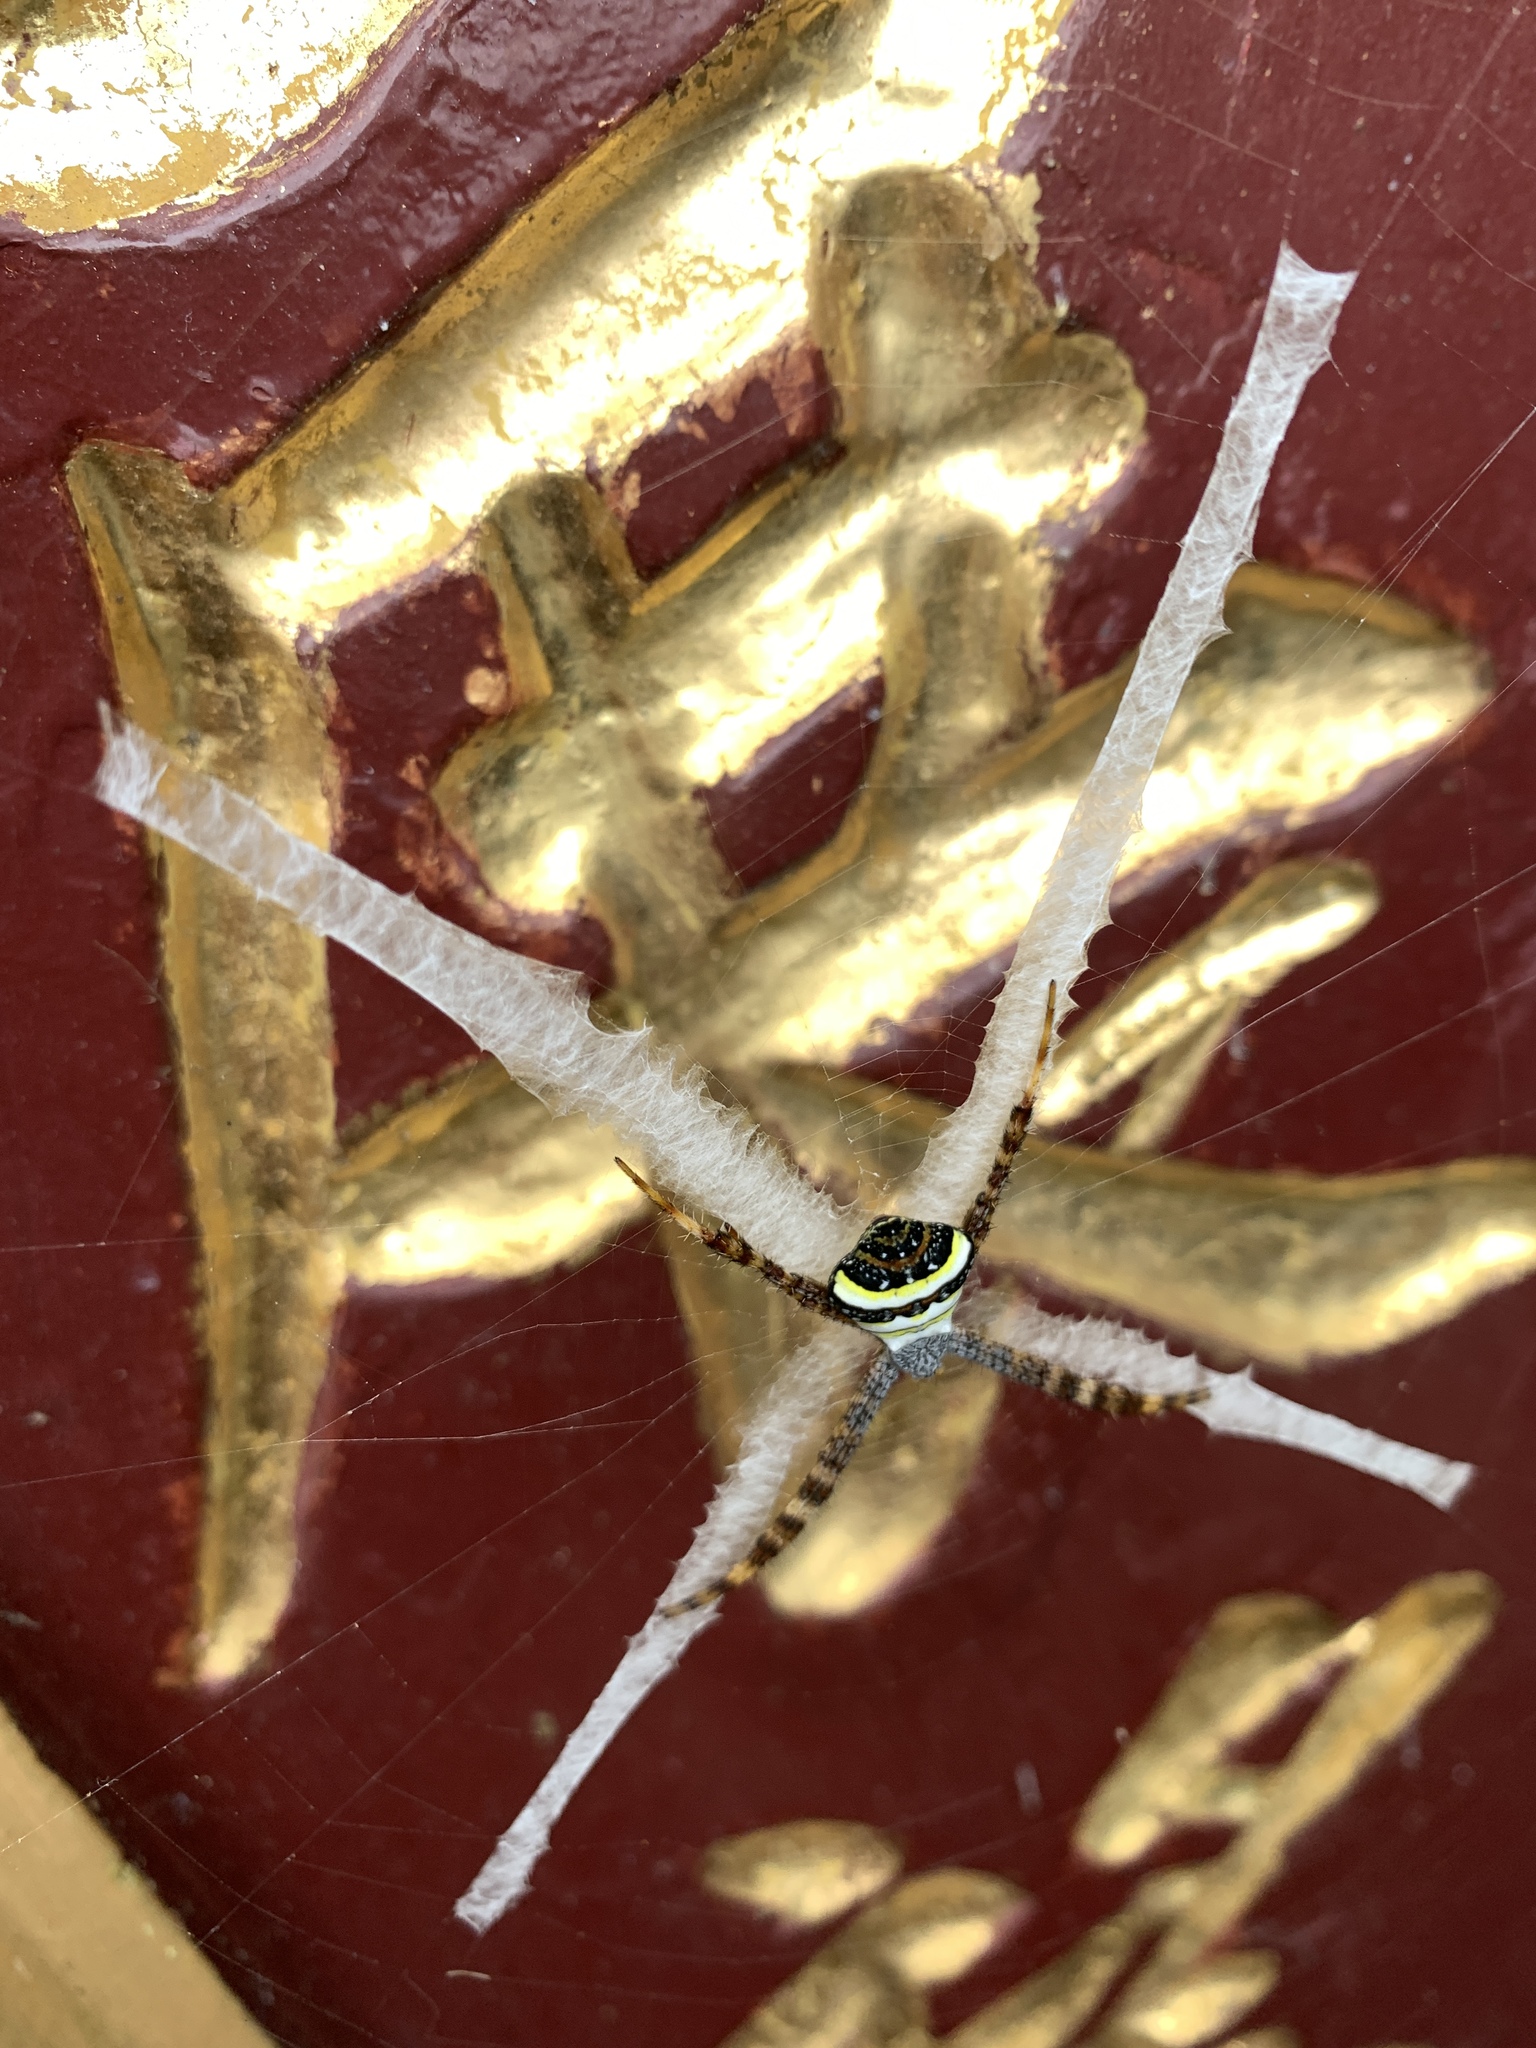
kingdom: Animalia
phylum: Arthropoda
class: Arachnida
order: Araneae
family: Araneidae
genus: Argiope
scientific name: Argiope aetheroides
